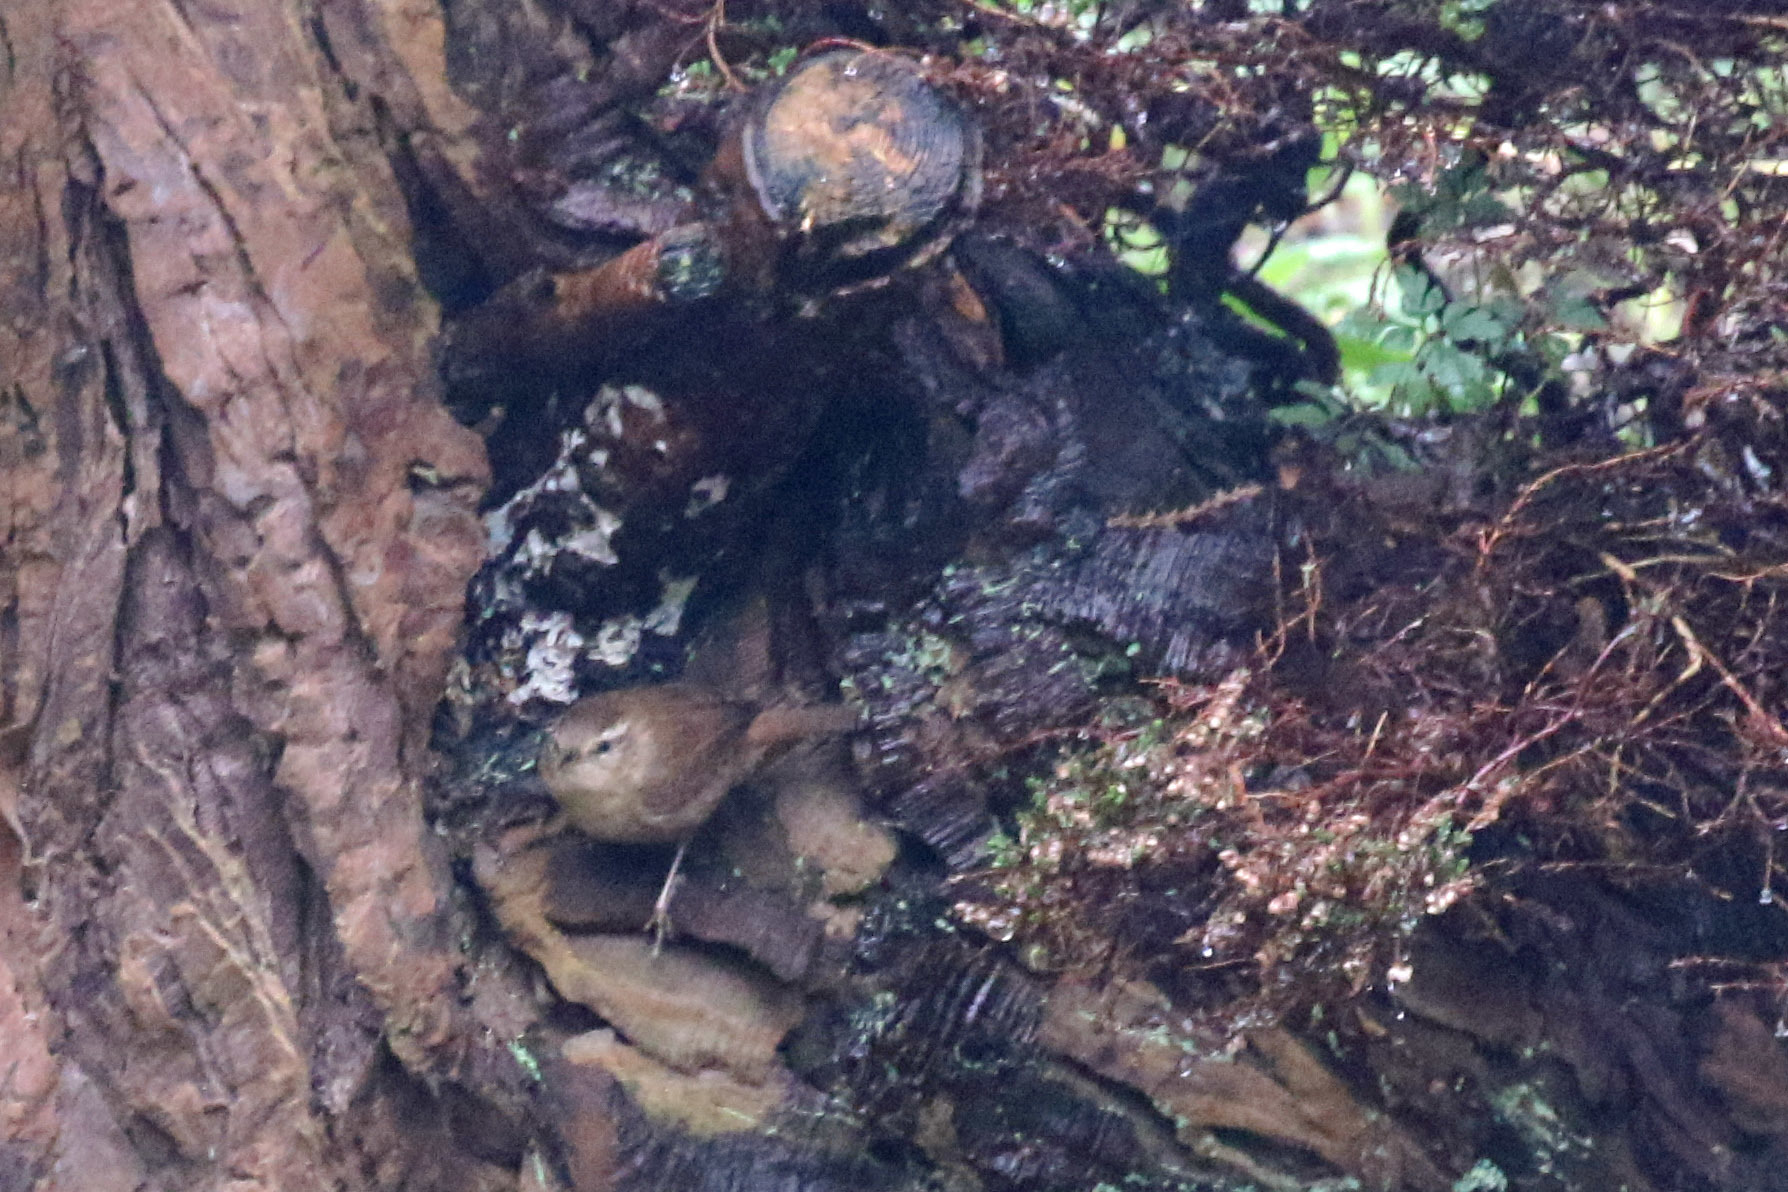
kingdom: Animalia
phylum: Chordata
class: Aves
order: Passeriformes
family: Troglodytidae
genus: Troglodytes
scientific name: Troglodytes troglodytes
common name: Eurasian wren
